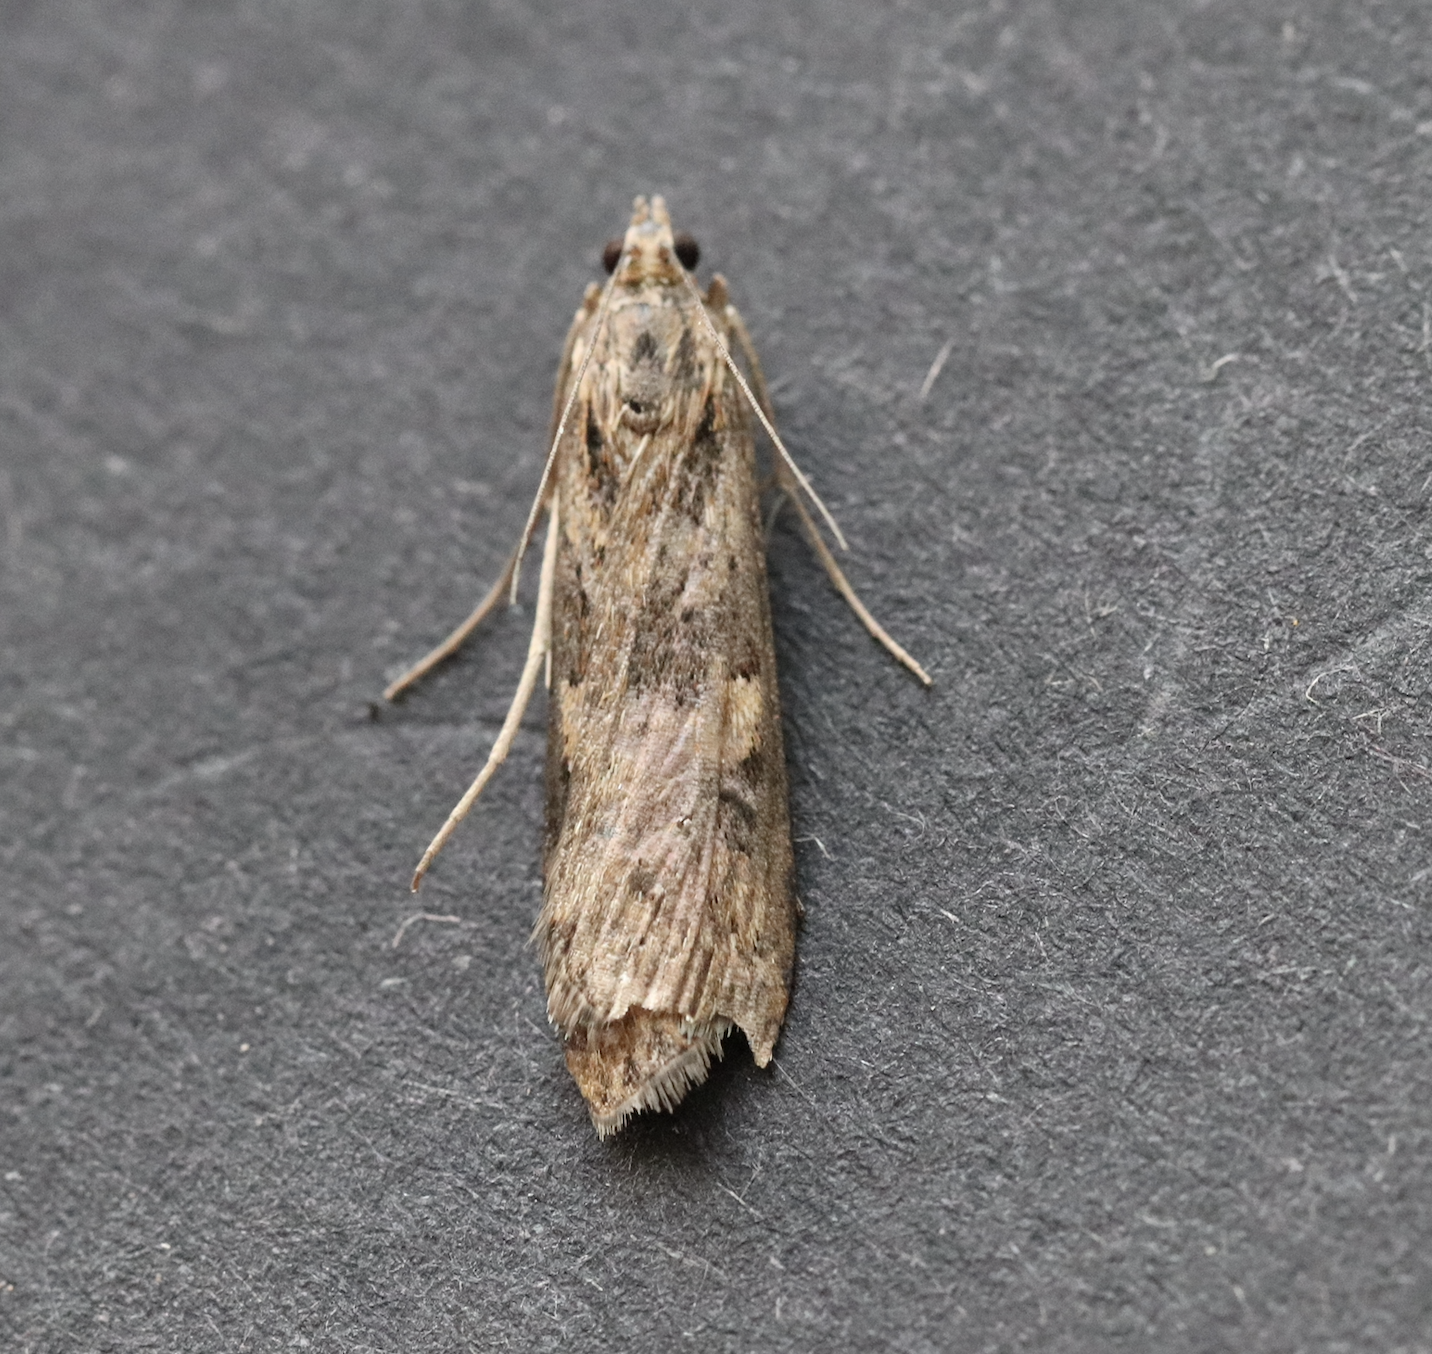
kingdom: Animalia
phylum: Arthropoda
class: Insecta
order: Lepidoptera
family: Crambidae
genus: Nomophila
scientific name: Nomophila noctuella
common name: Rush veneer
